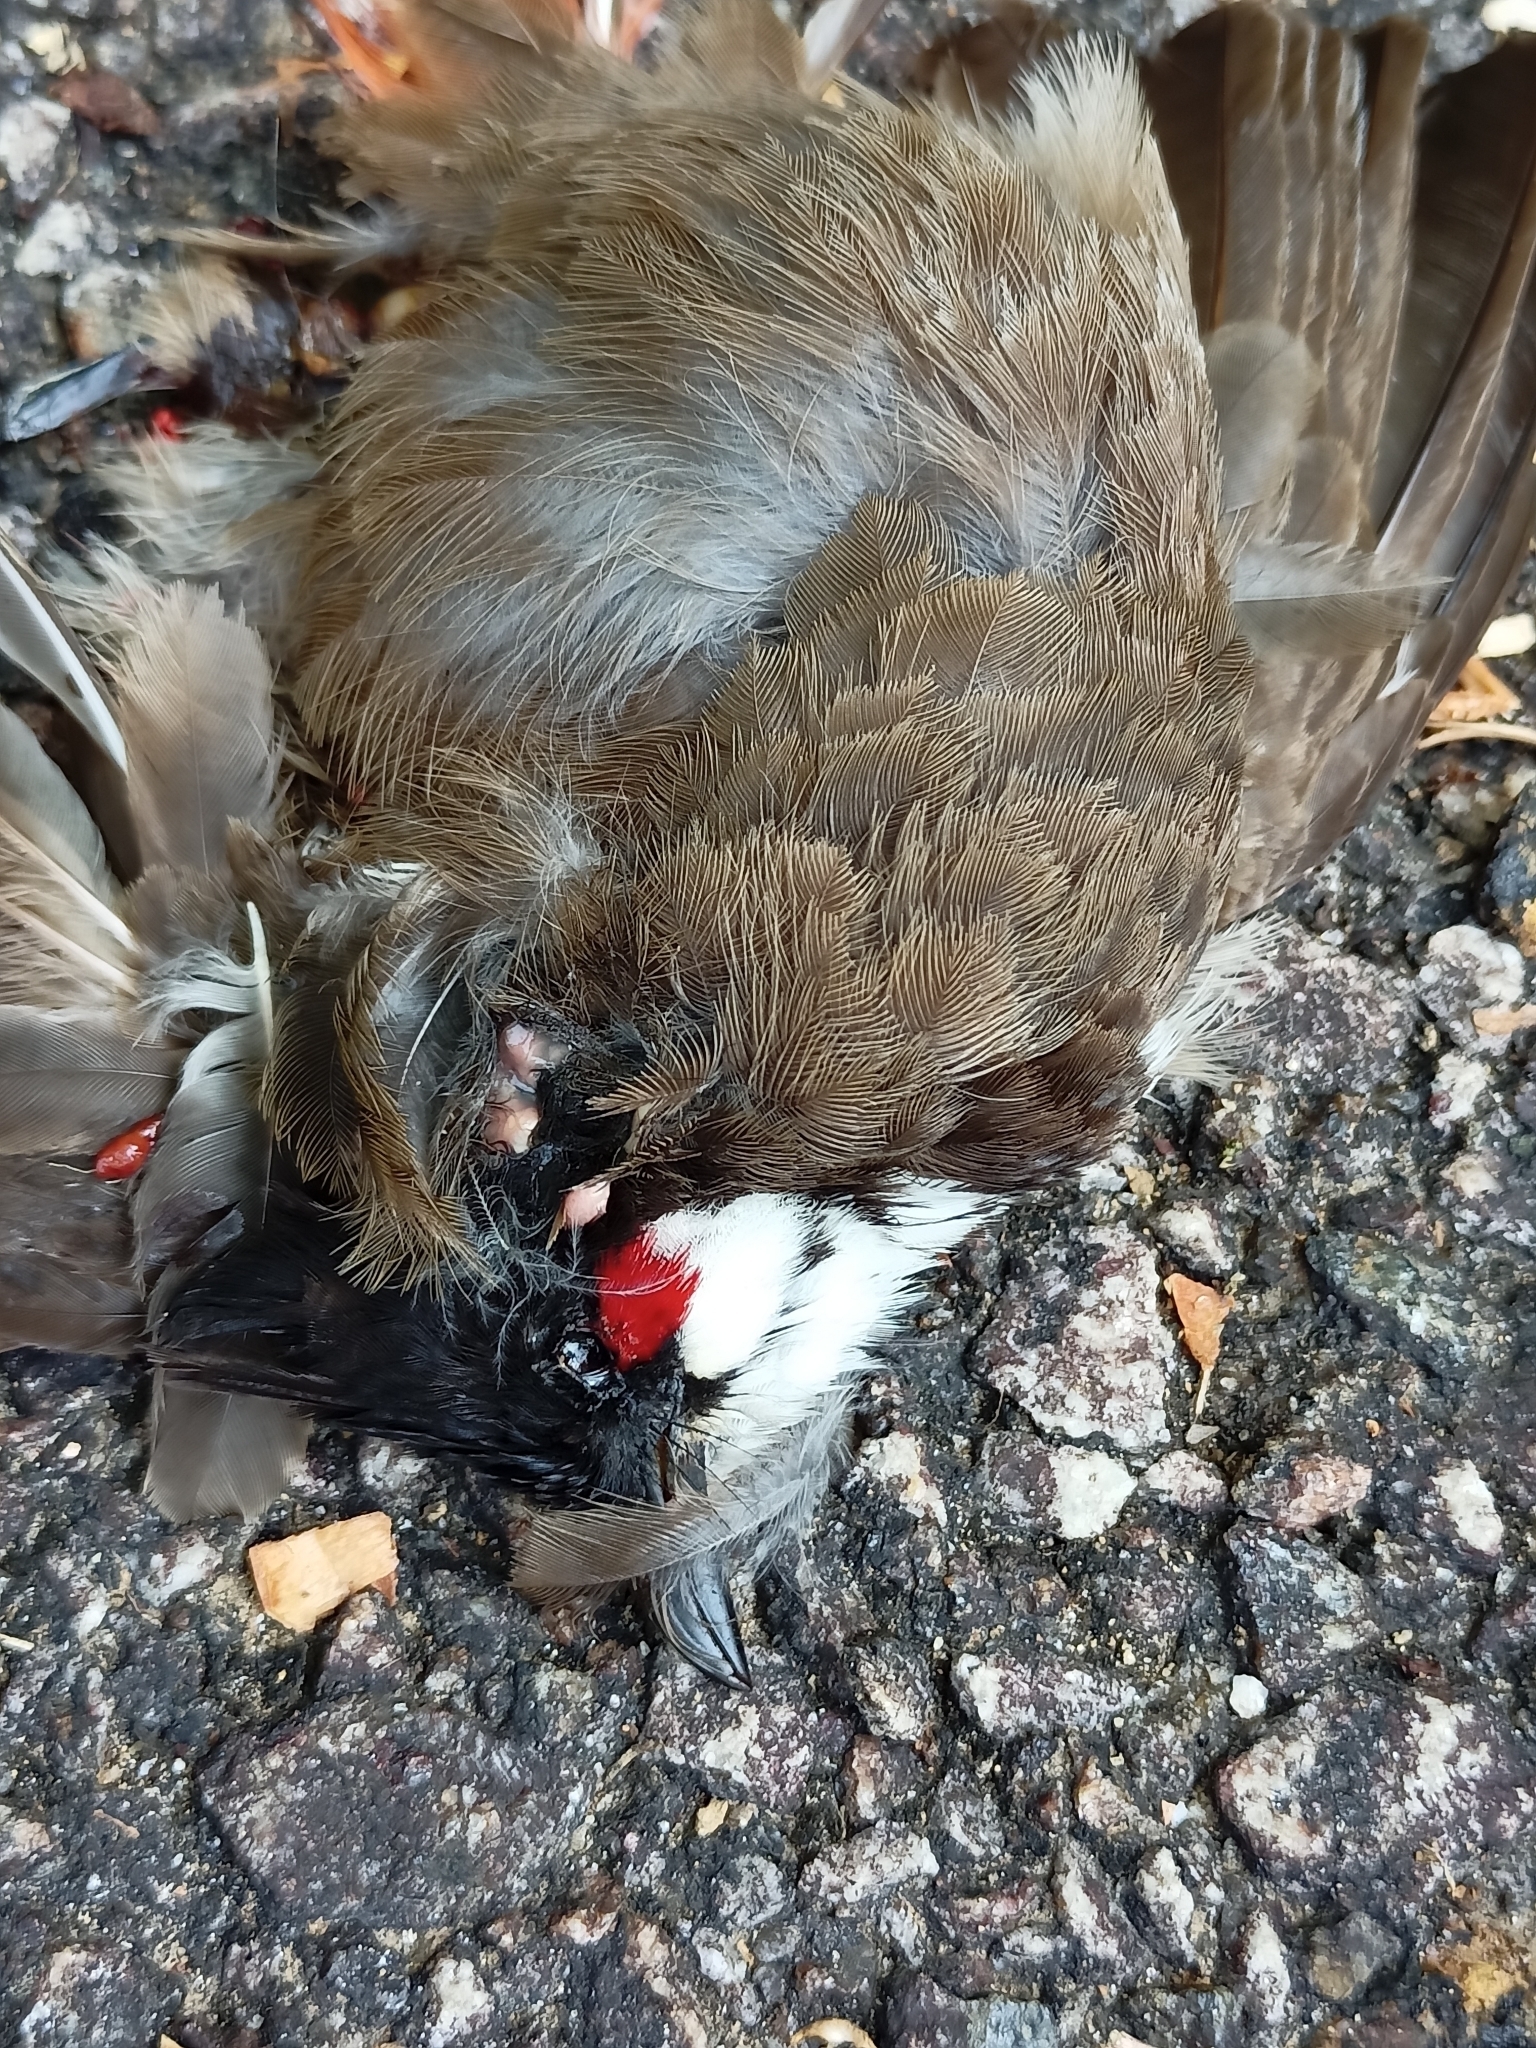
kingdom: Animalia
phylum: Chordata
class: Aves
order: Passeriformes
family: Pycnonotidae
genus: Pycnonotus
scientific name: Pycnonotus jocosus
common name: Red-whiskered bulbul
